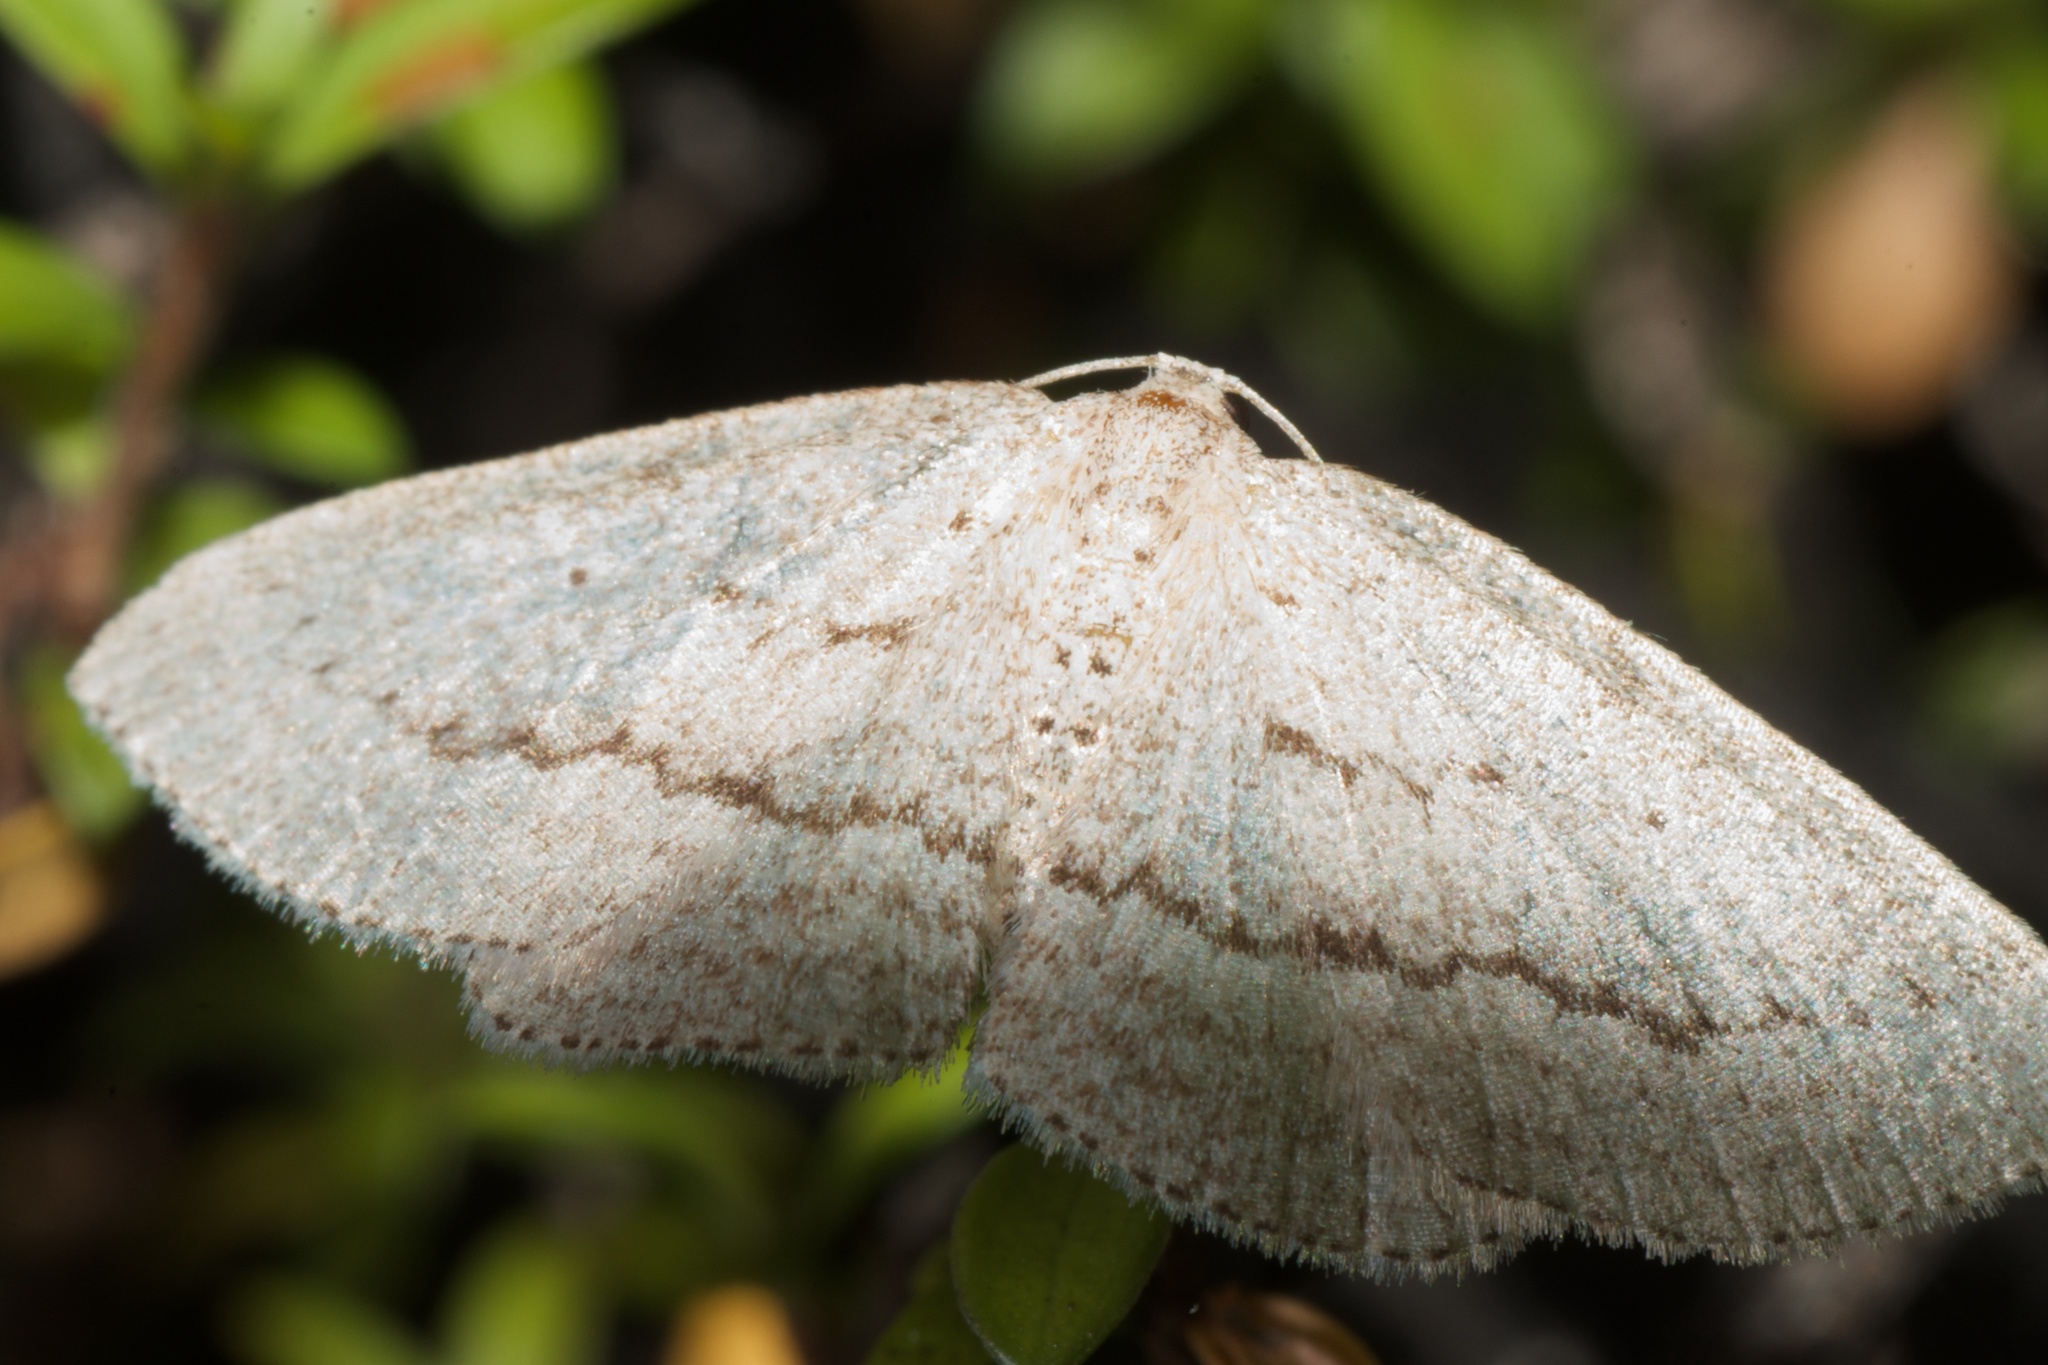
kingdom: Animalia
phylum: Arthropoda
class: Insecta
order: Lepidoptera
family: Geometridae
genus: Poecilasthena
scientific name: Poecilasthena schistaria
